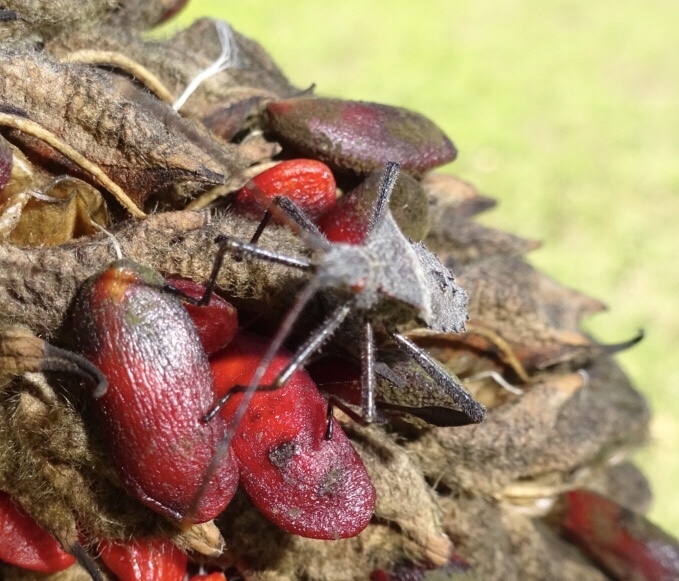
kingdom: Animalia
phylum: Arthropoda
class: Insecta
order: Hemiptera
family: Coreidae
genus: Leptoglossus
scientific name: Leptoglossus fulvicornis
